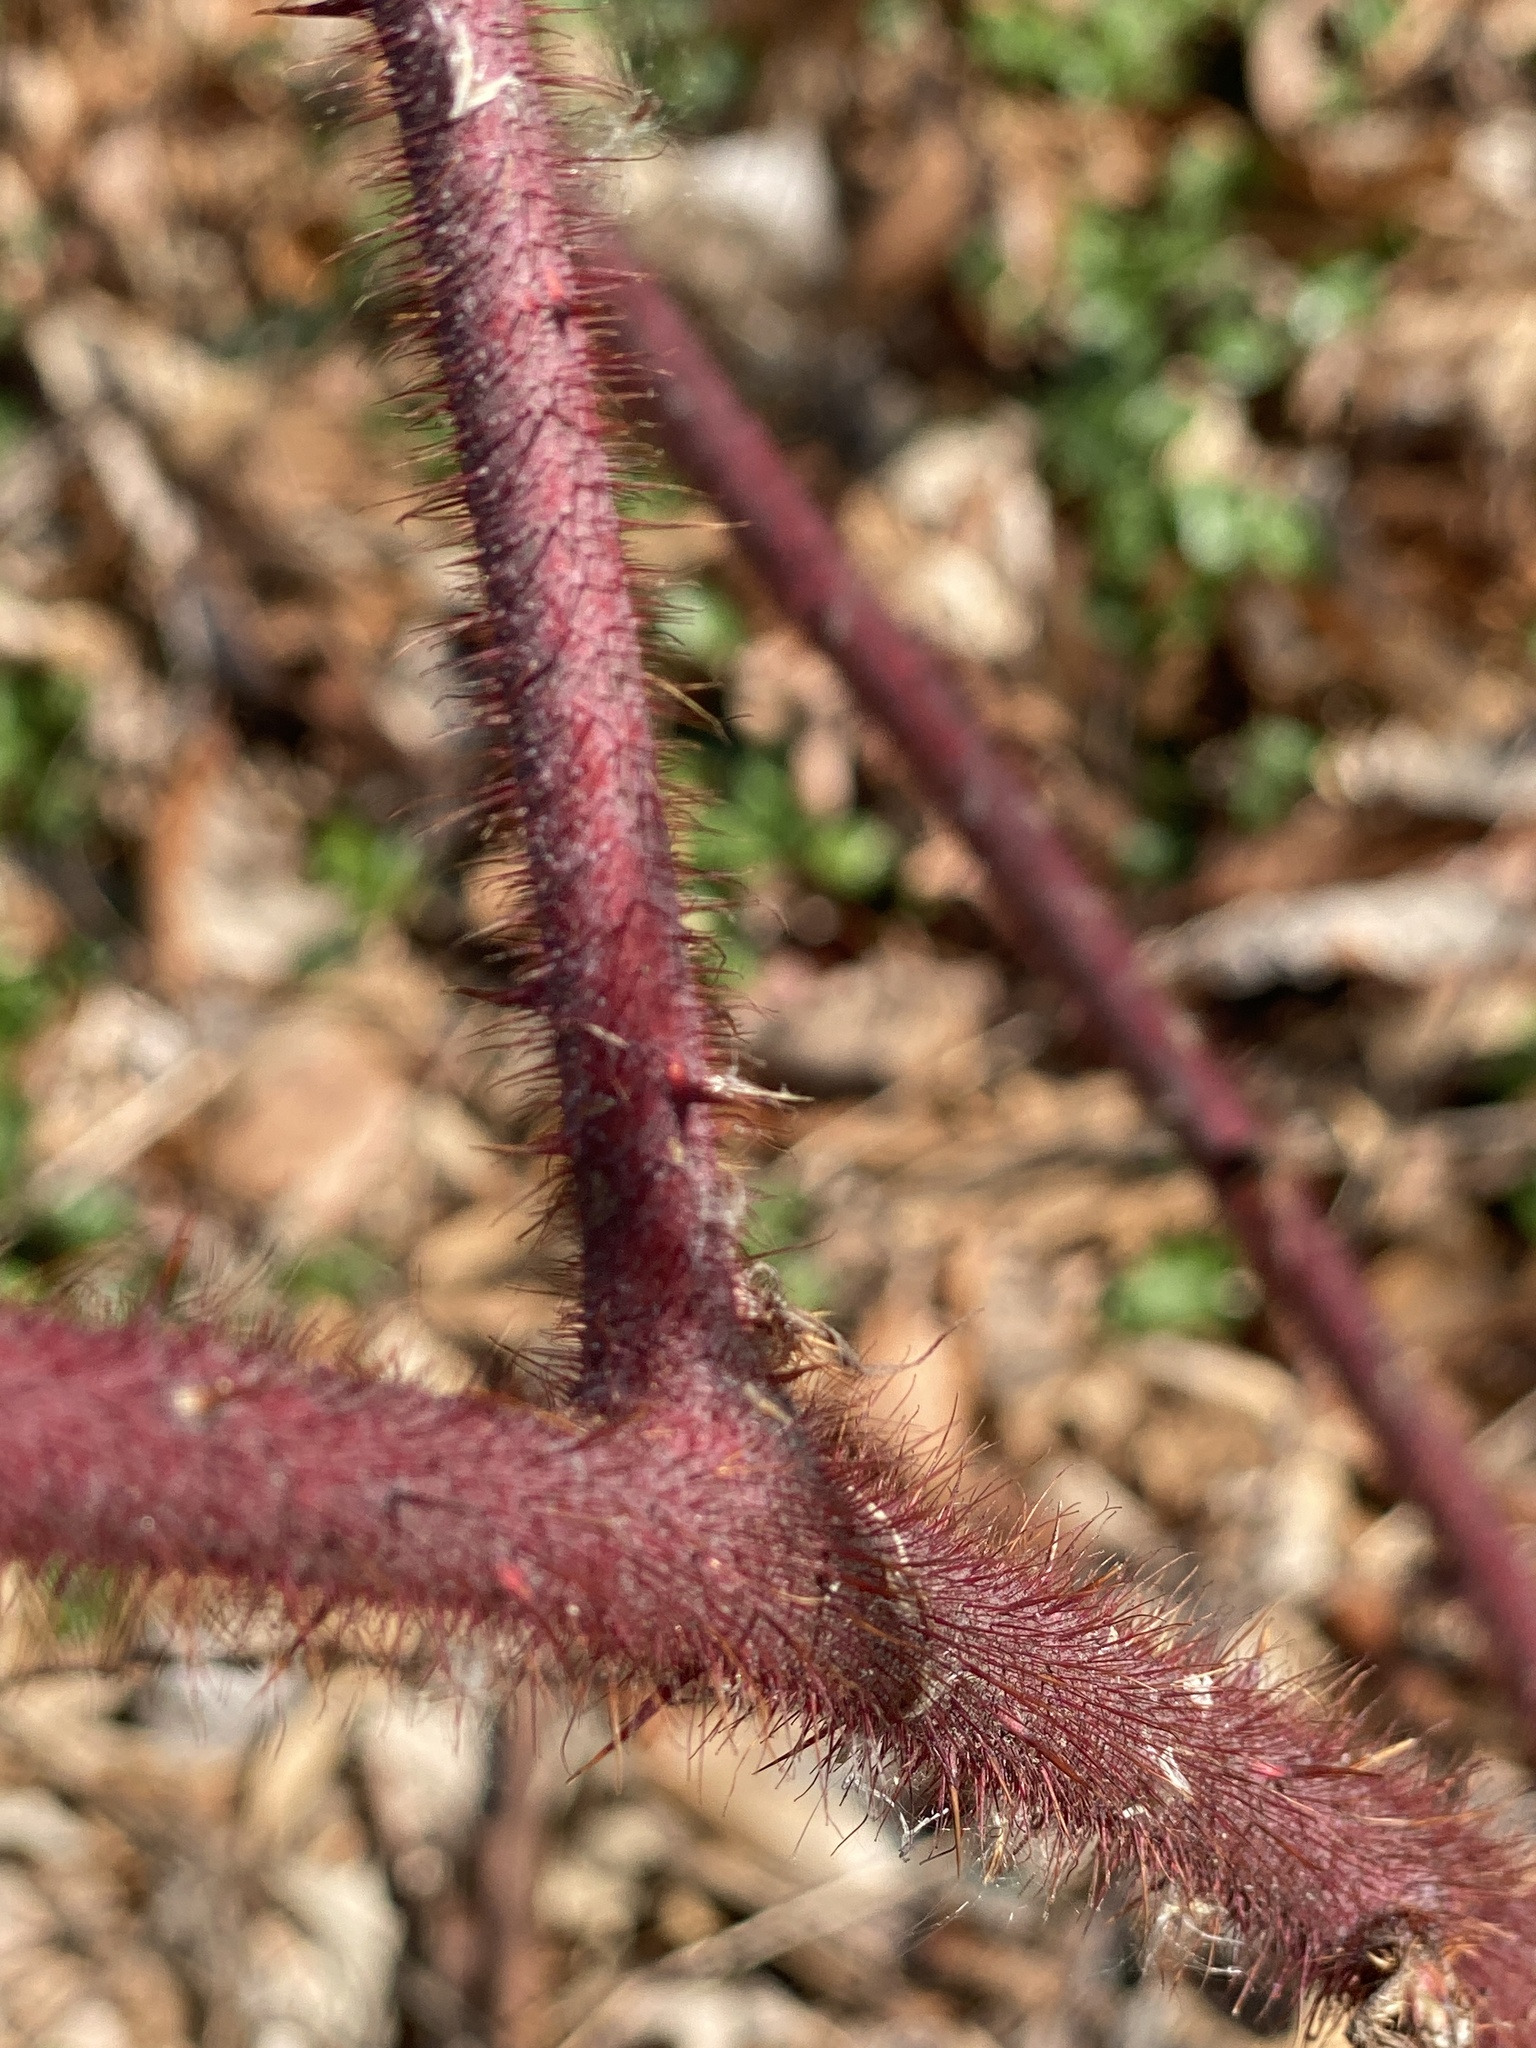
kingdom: Plantae
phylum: Tracheophyta
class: Magnoliopsida
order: Rosales
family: Rosaceae
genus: Rubus
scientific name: Rubus phoenicolasius
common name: Japanese wineberry
